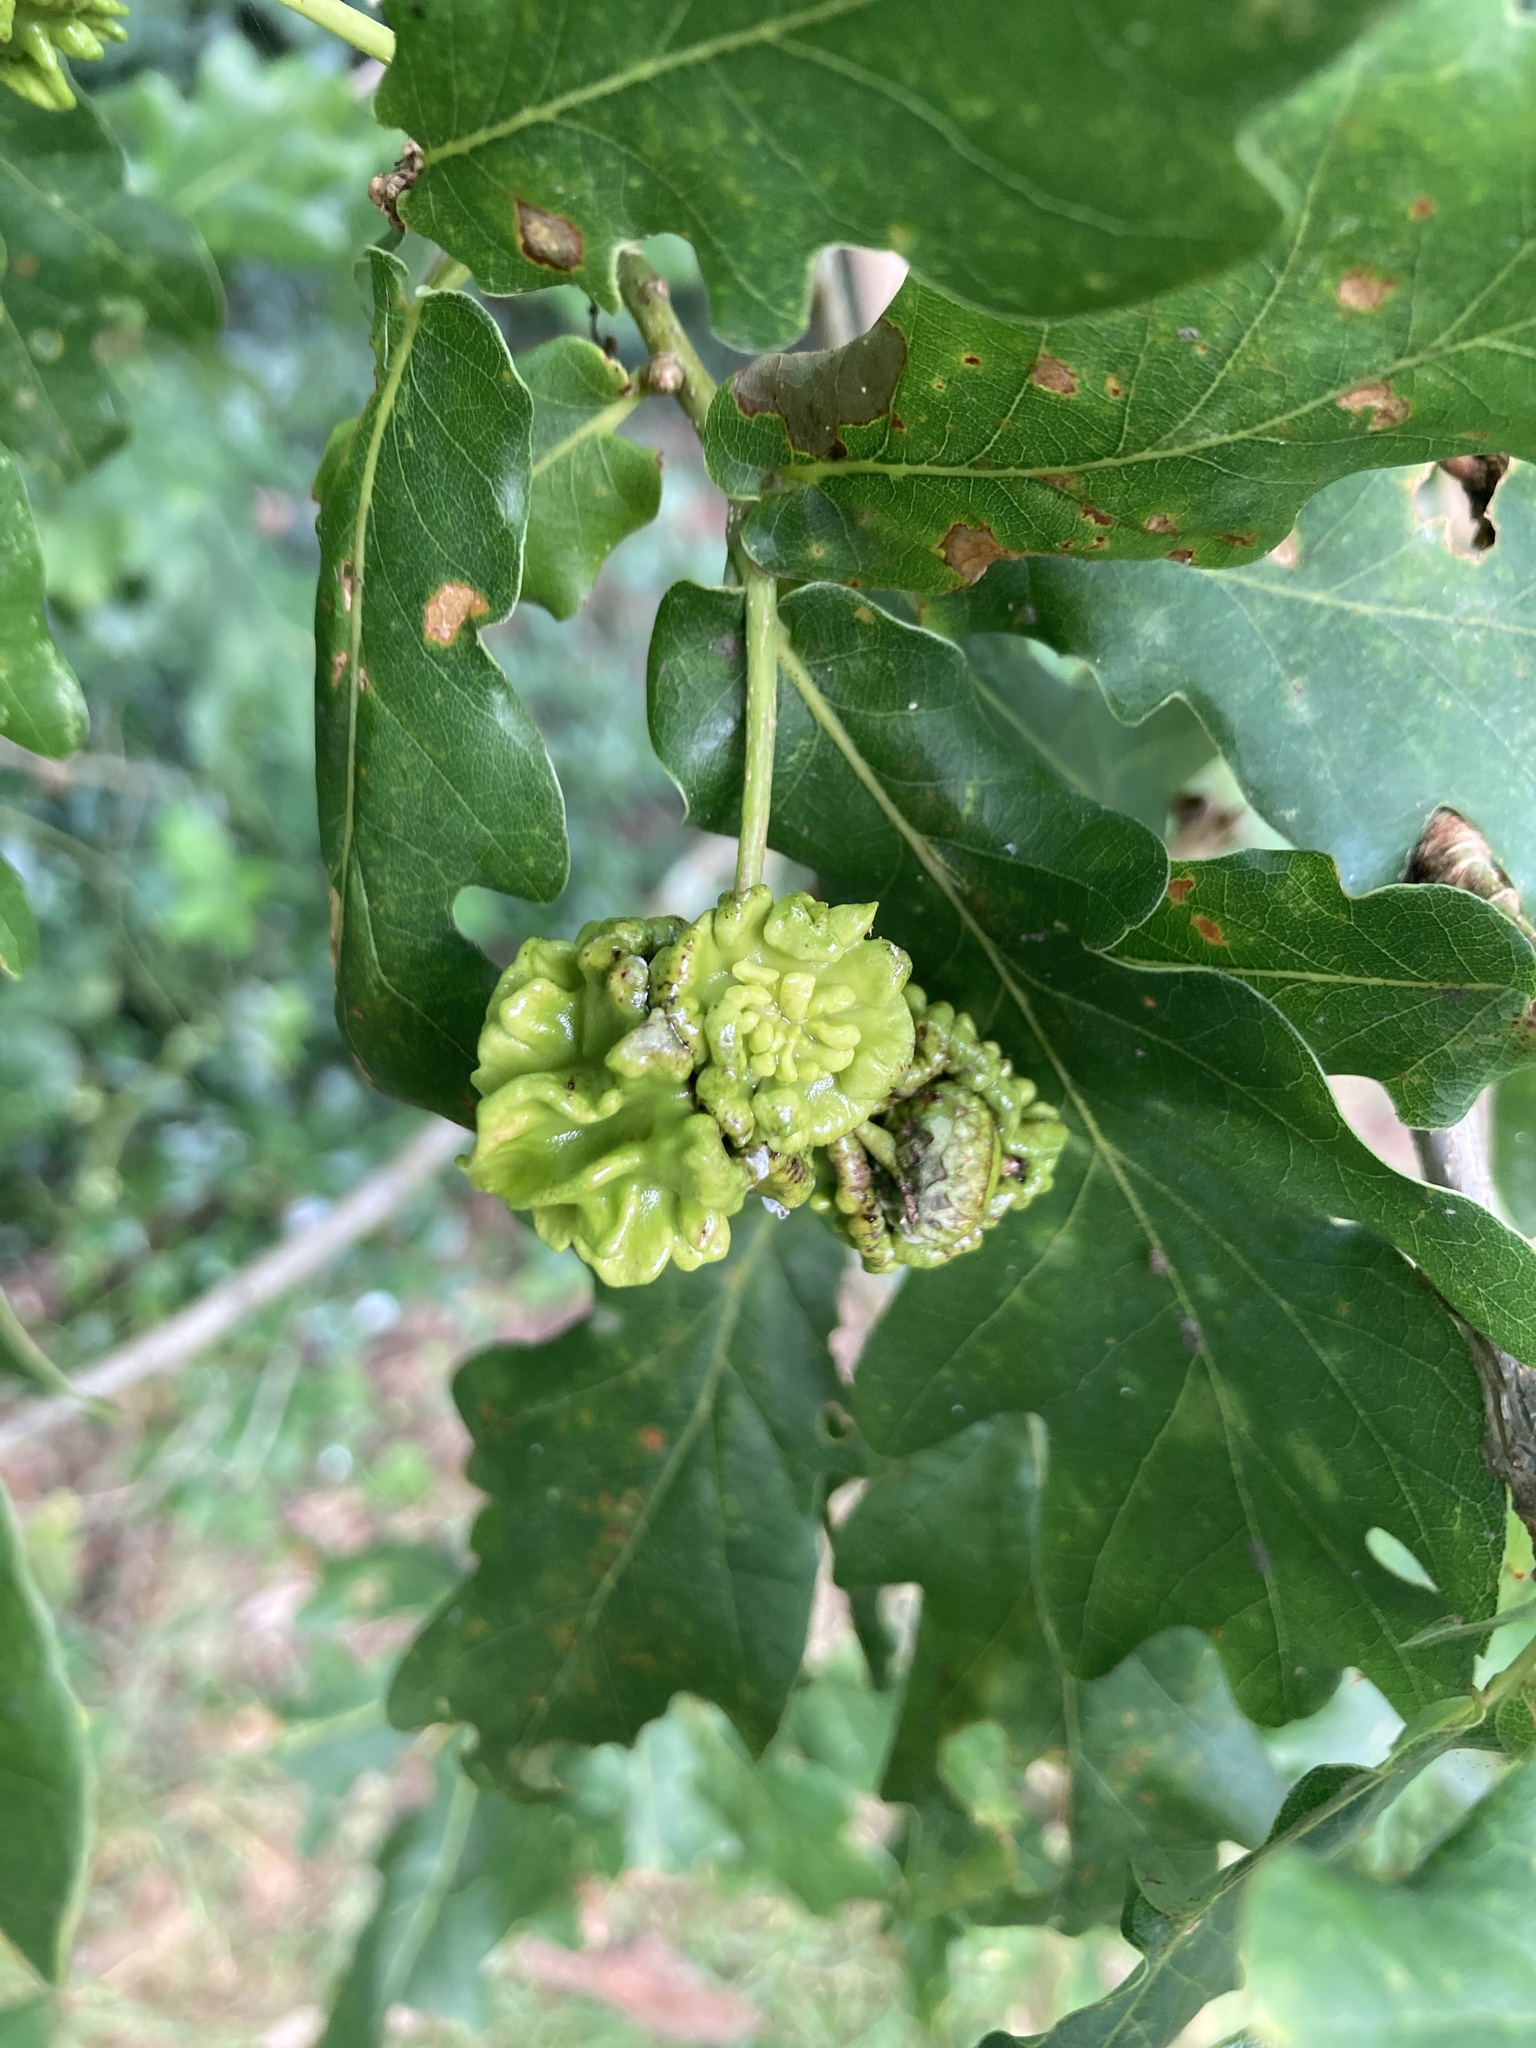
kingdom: Animalia
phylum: Arthropoda
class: Insecta
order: Hymenoptera
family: Cynipidae
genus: Andricus
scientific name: Andricus quercuscalicis
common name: Knopper gall
